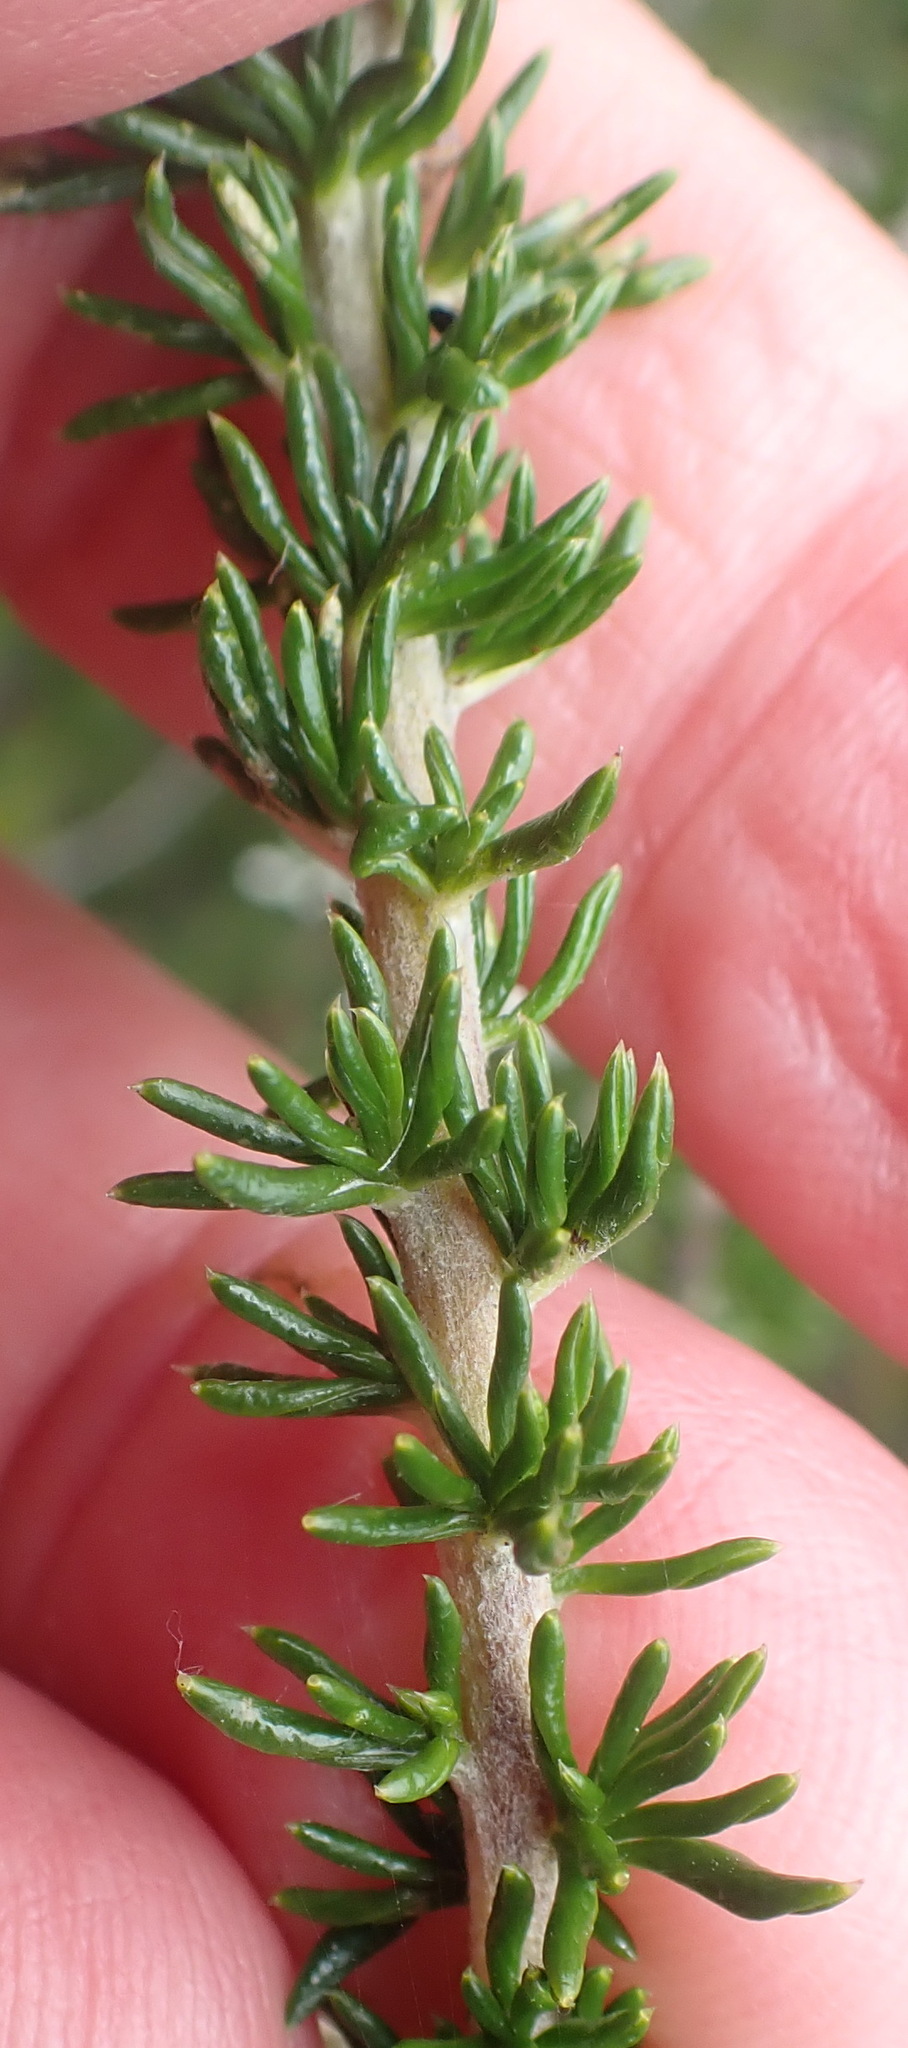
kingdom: Plantae
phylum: Tracheophyta
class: Magnoliopsida
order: Asterales
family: Asteraceae
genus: Metalasia
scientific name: Metalasia muricata
